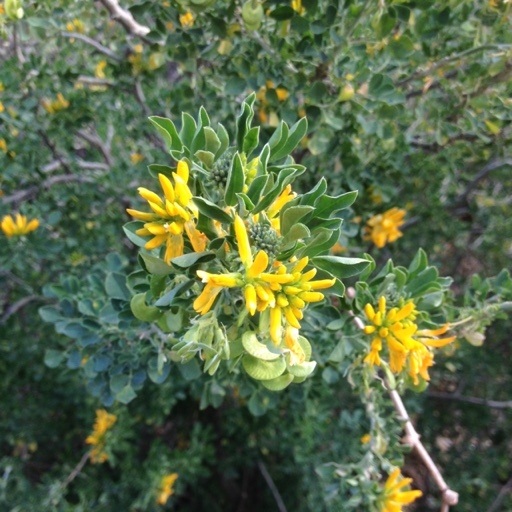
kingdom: Plantae
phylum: Tracheophyta
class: Magnoliopsida
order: Fabales
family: Fabaceae
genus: Medicago
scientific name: Medicago arborea
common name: Moon trefoil
